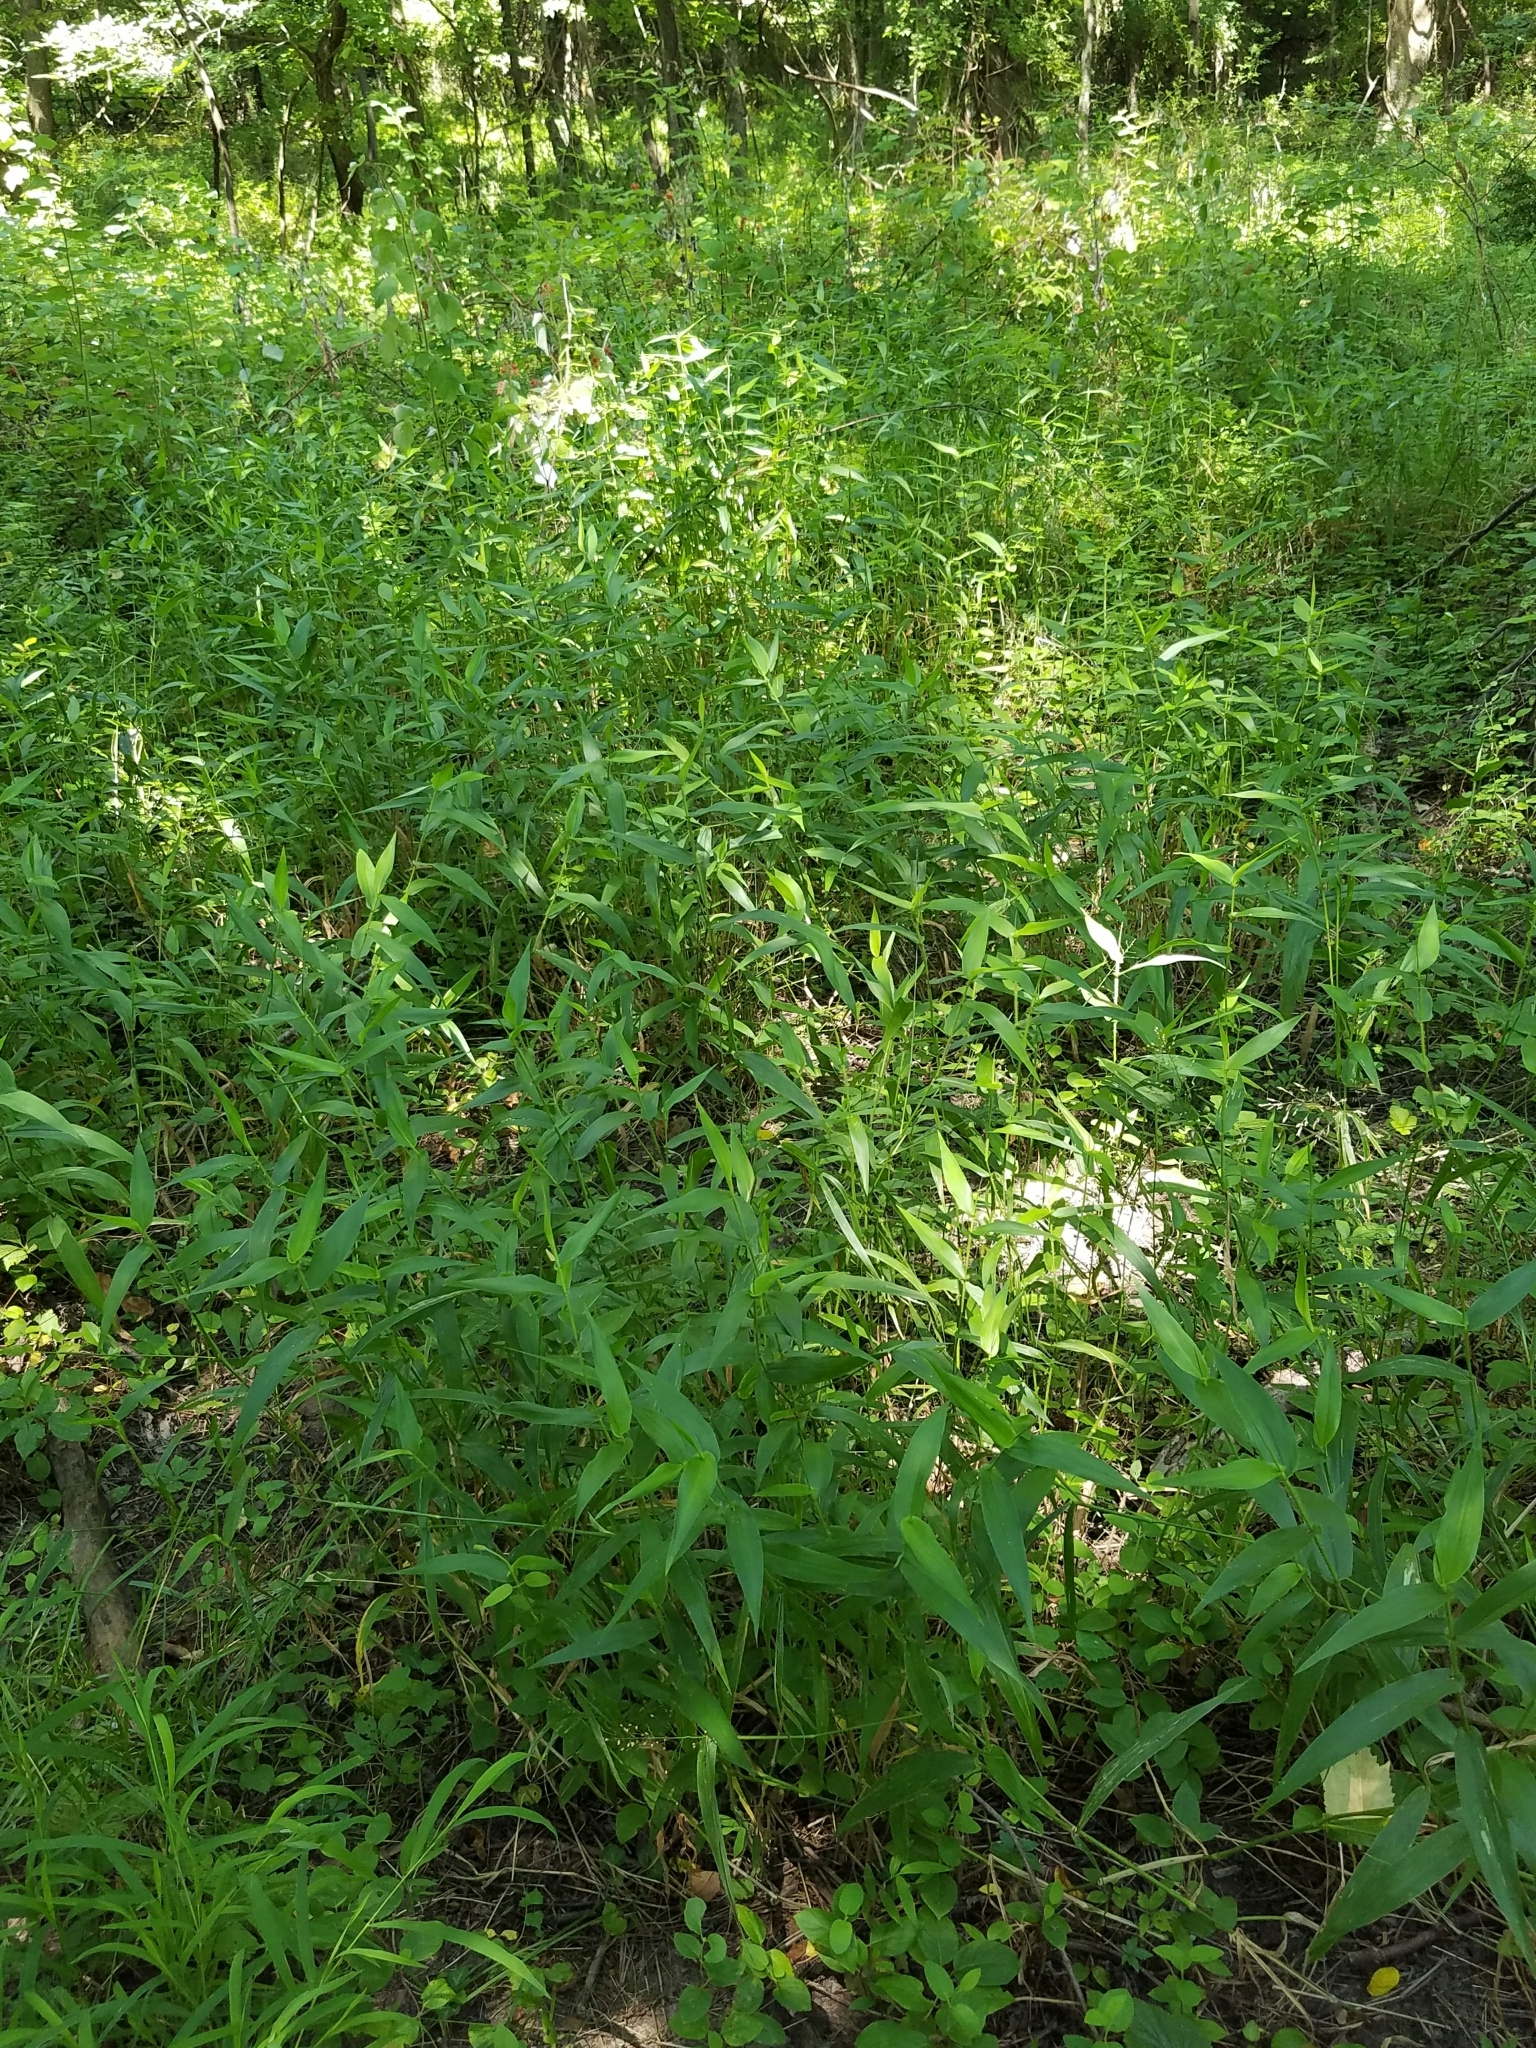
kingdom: Plantae
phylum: Tracheophyta
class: Liliopsida
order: Poales
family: Poaceae
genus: Dichanthelium
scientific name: Dichanthelium clandestinum
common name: Deer-tongue grass
